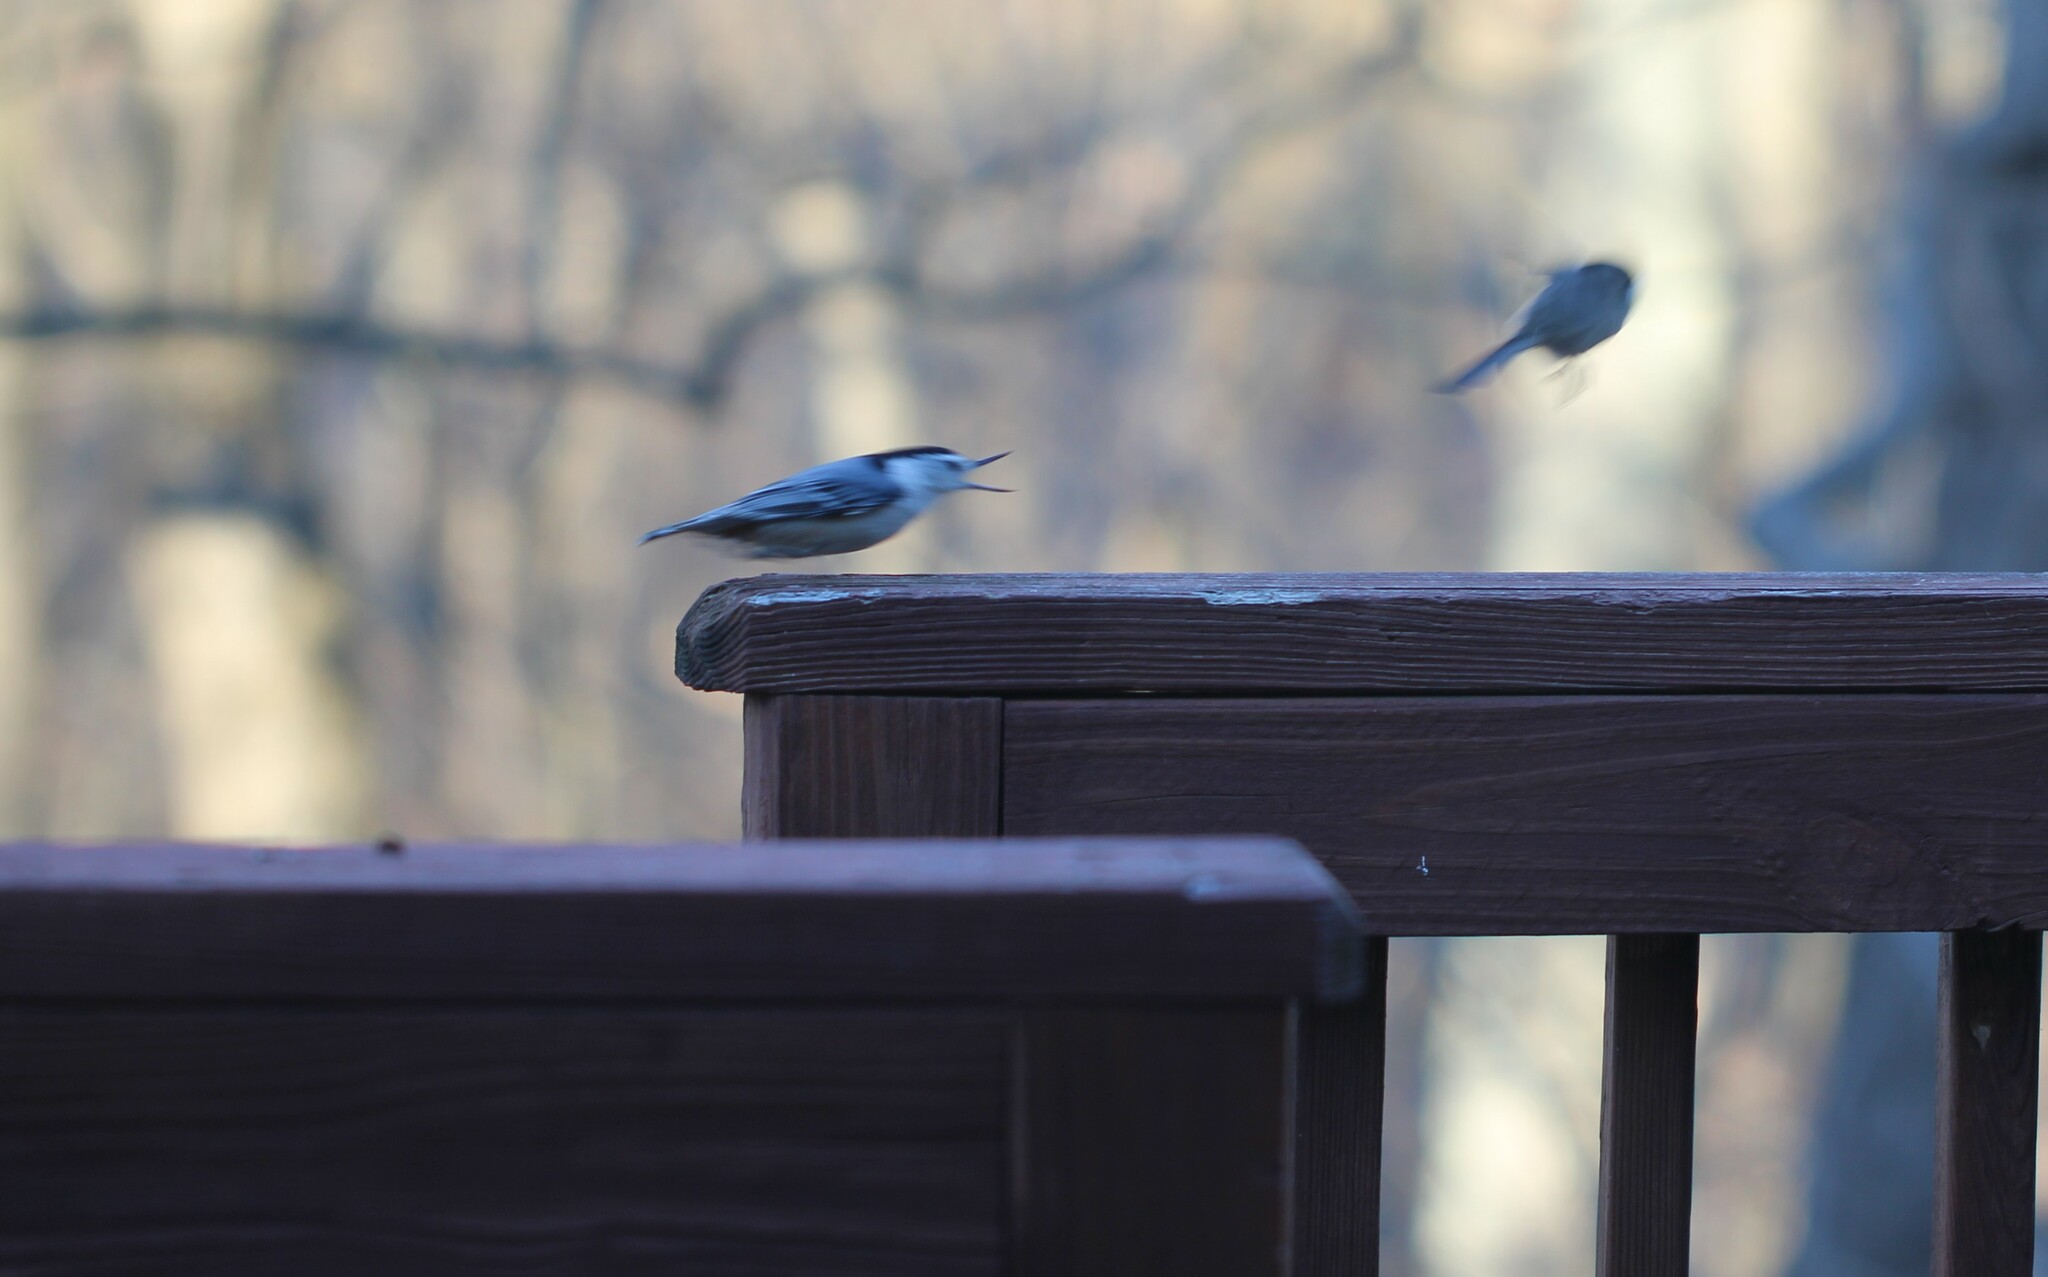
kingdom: Animalia
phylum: Chordata
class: Aves
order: Passeriformes
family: Sittidae
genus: Sitta
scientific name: Sitta carolinensis
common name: White-breasted nuthatch
